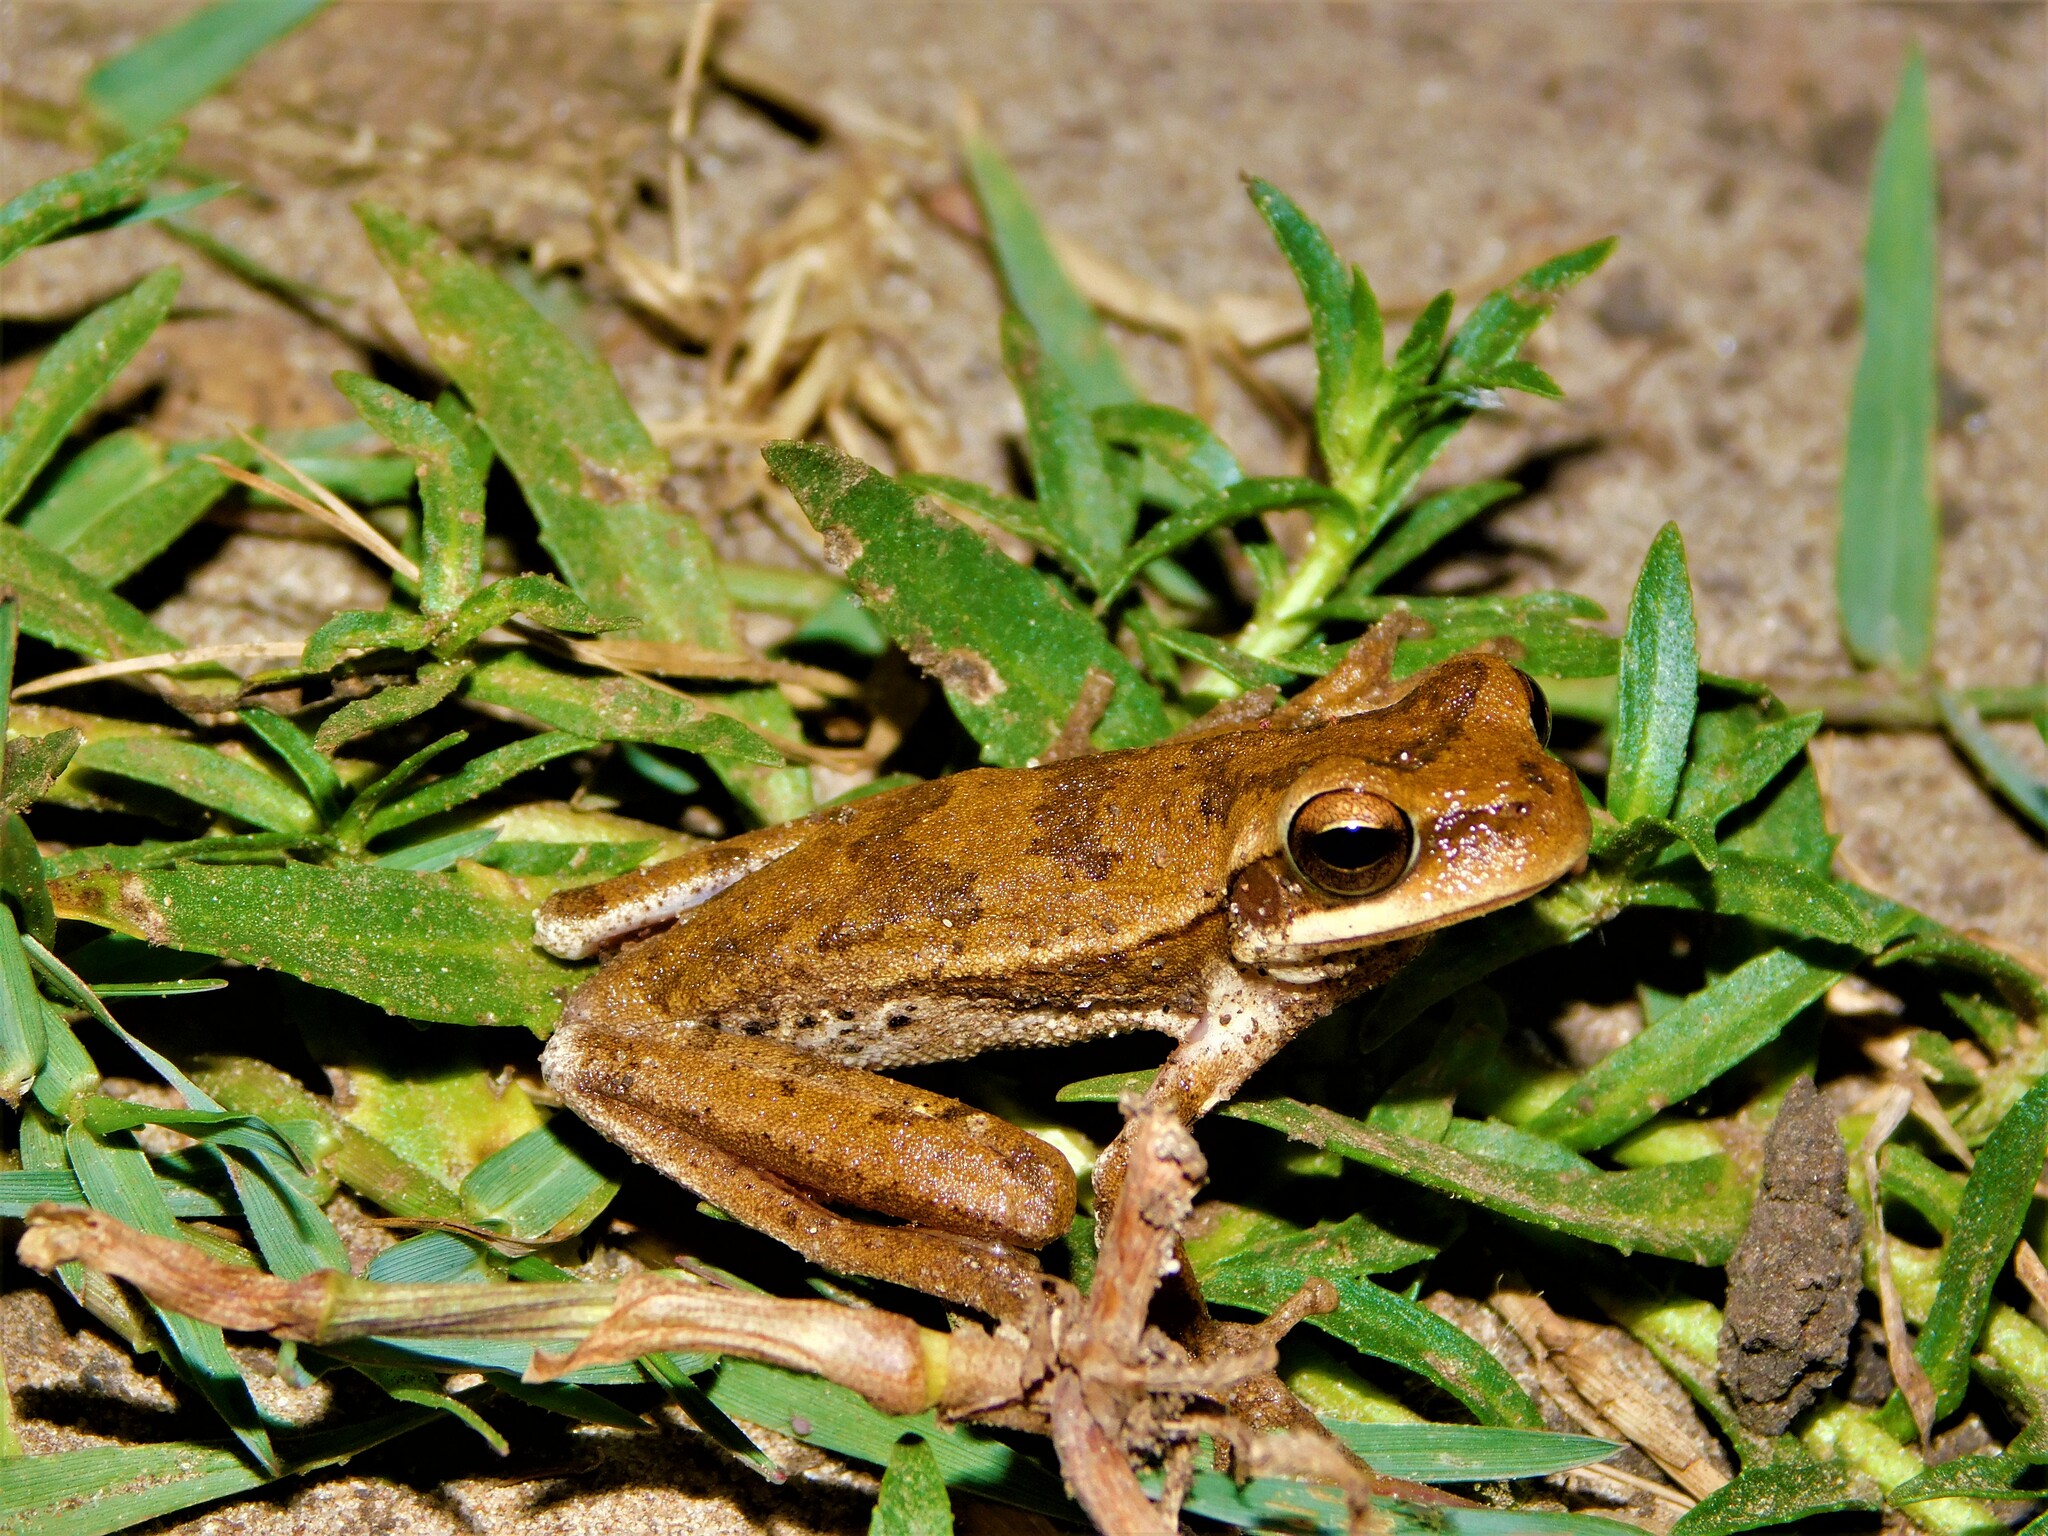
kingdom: Animalia
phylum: Chordata
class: Amphibia
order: Anura
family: Hylidae
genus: Boana
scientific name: Boana pulchella
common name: Montevideo treefrog
